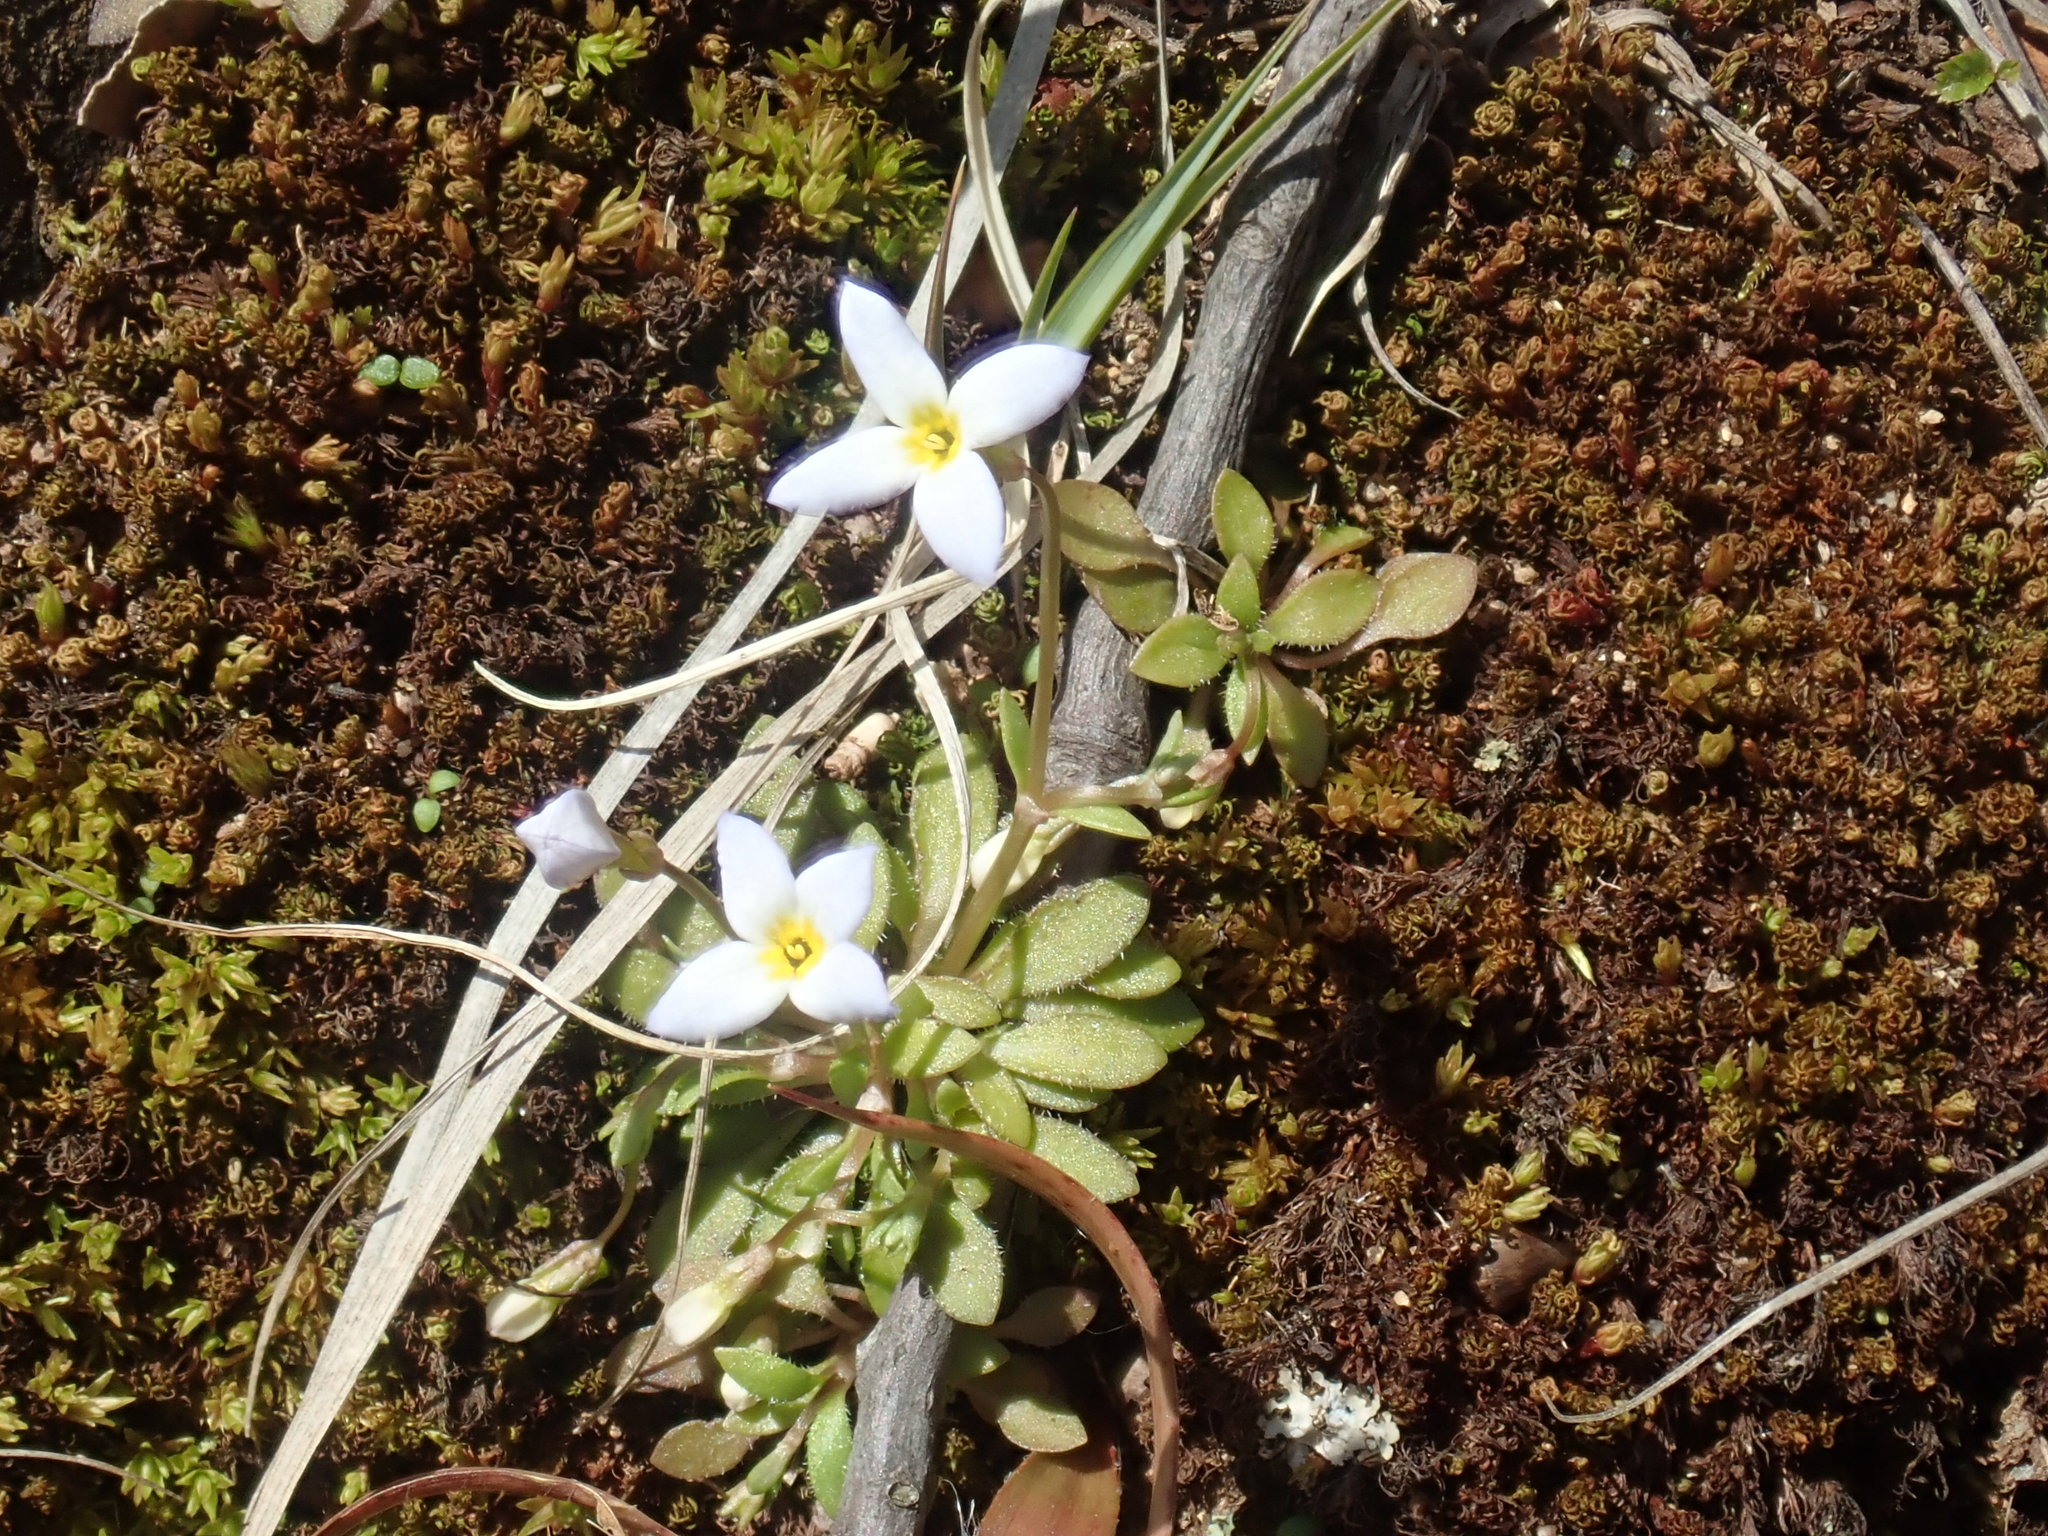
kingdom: Plantae
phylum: Tracheophyta
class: Magnoliopsida
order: Gentianales
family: Rubiaceae
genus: Houstonia
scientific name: Houstonia caerulea
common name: Bluets
